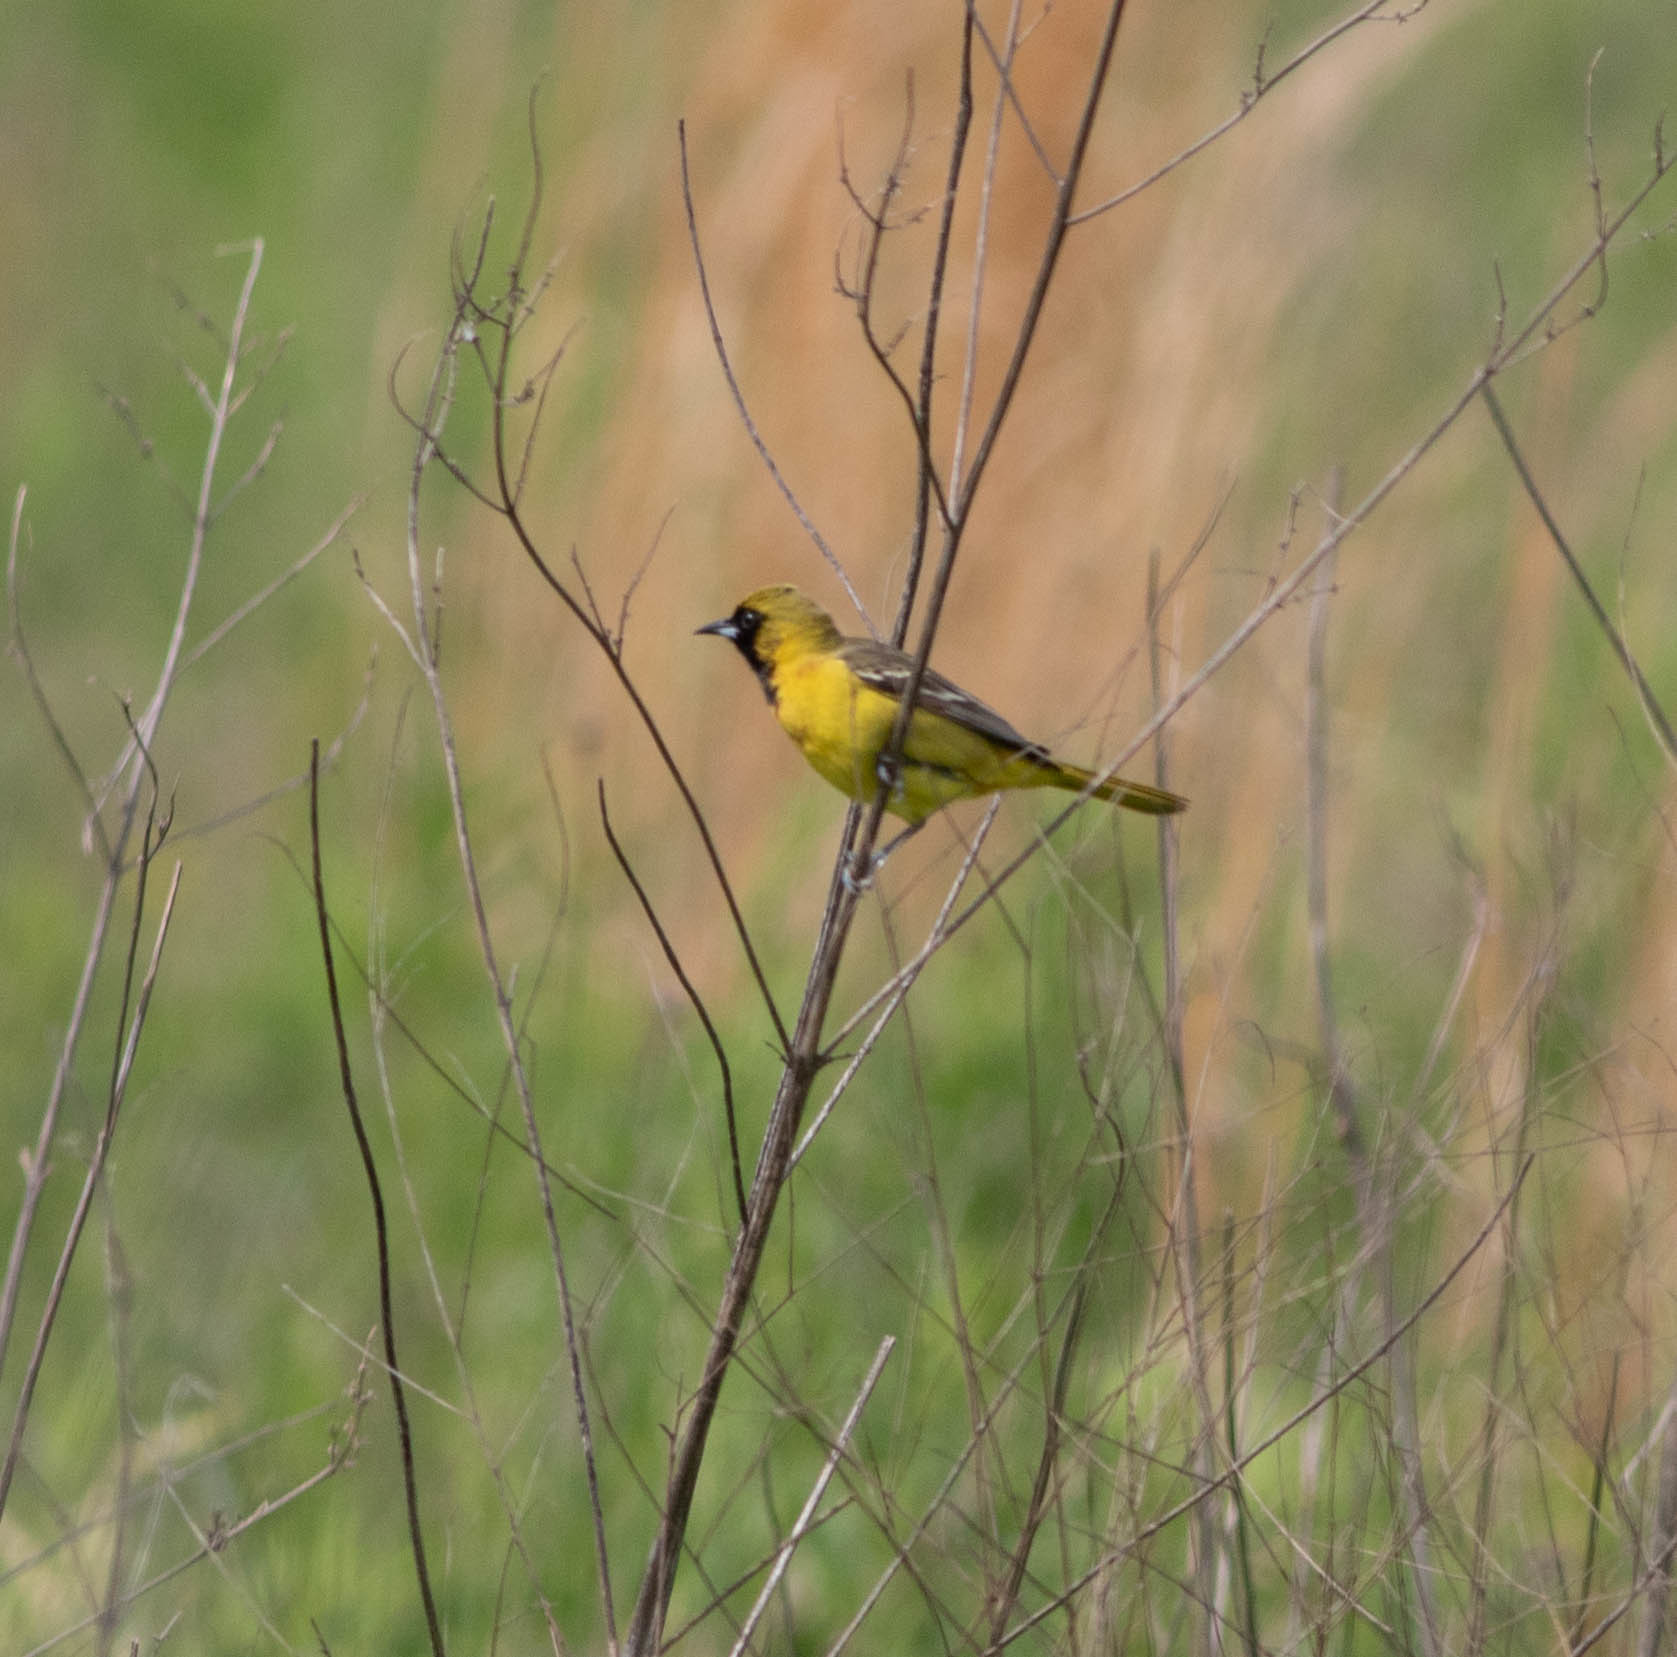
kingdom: Animalia
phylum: Chordata
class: Aves
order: Passeriformes
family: Icteridae
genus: Icterus
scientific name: Icterus spurius
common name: Orchard oriole
